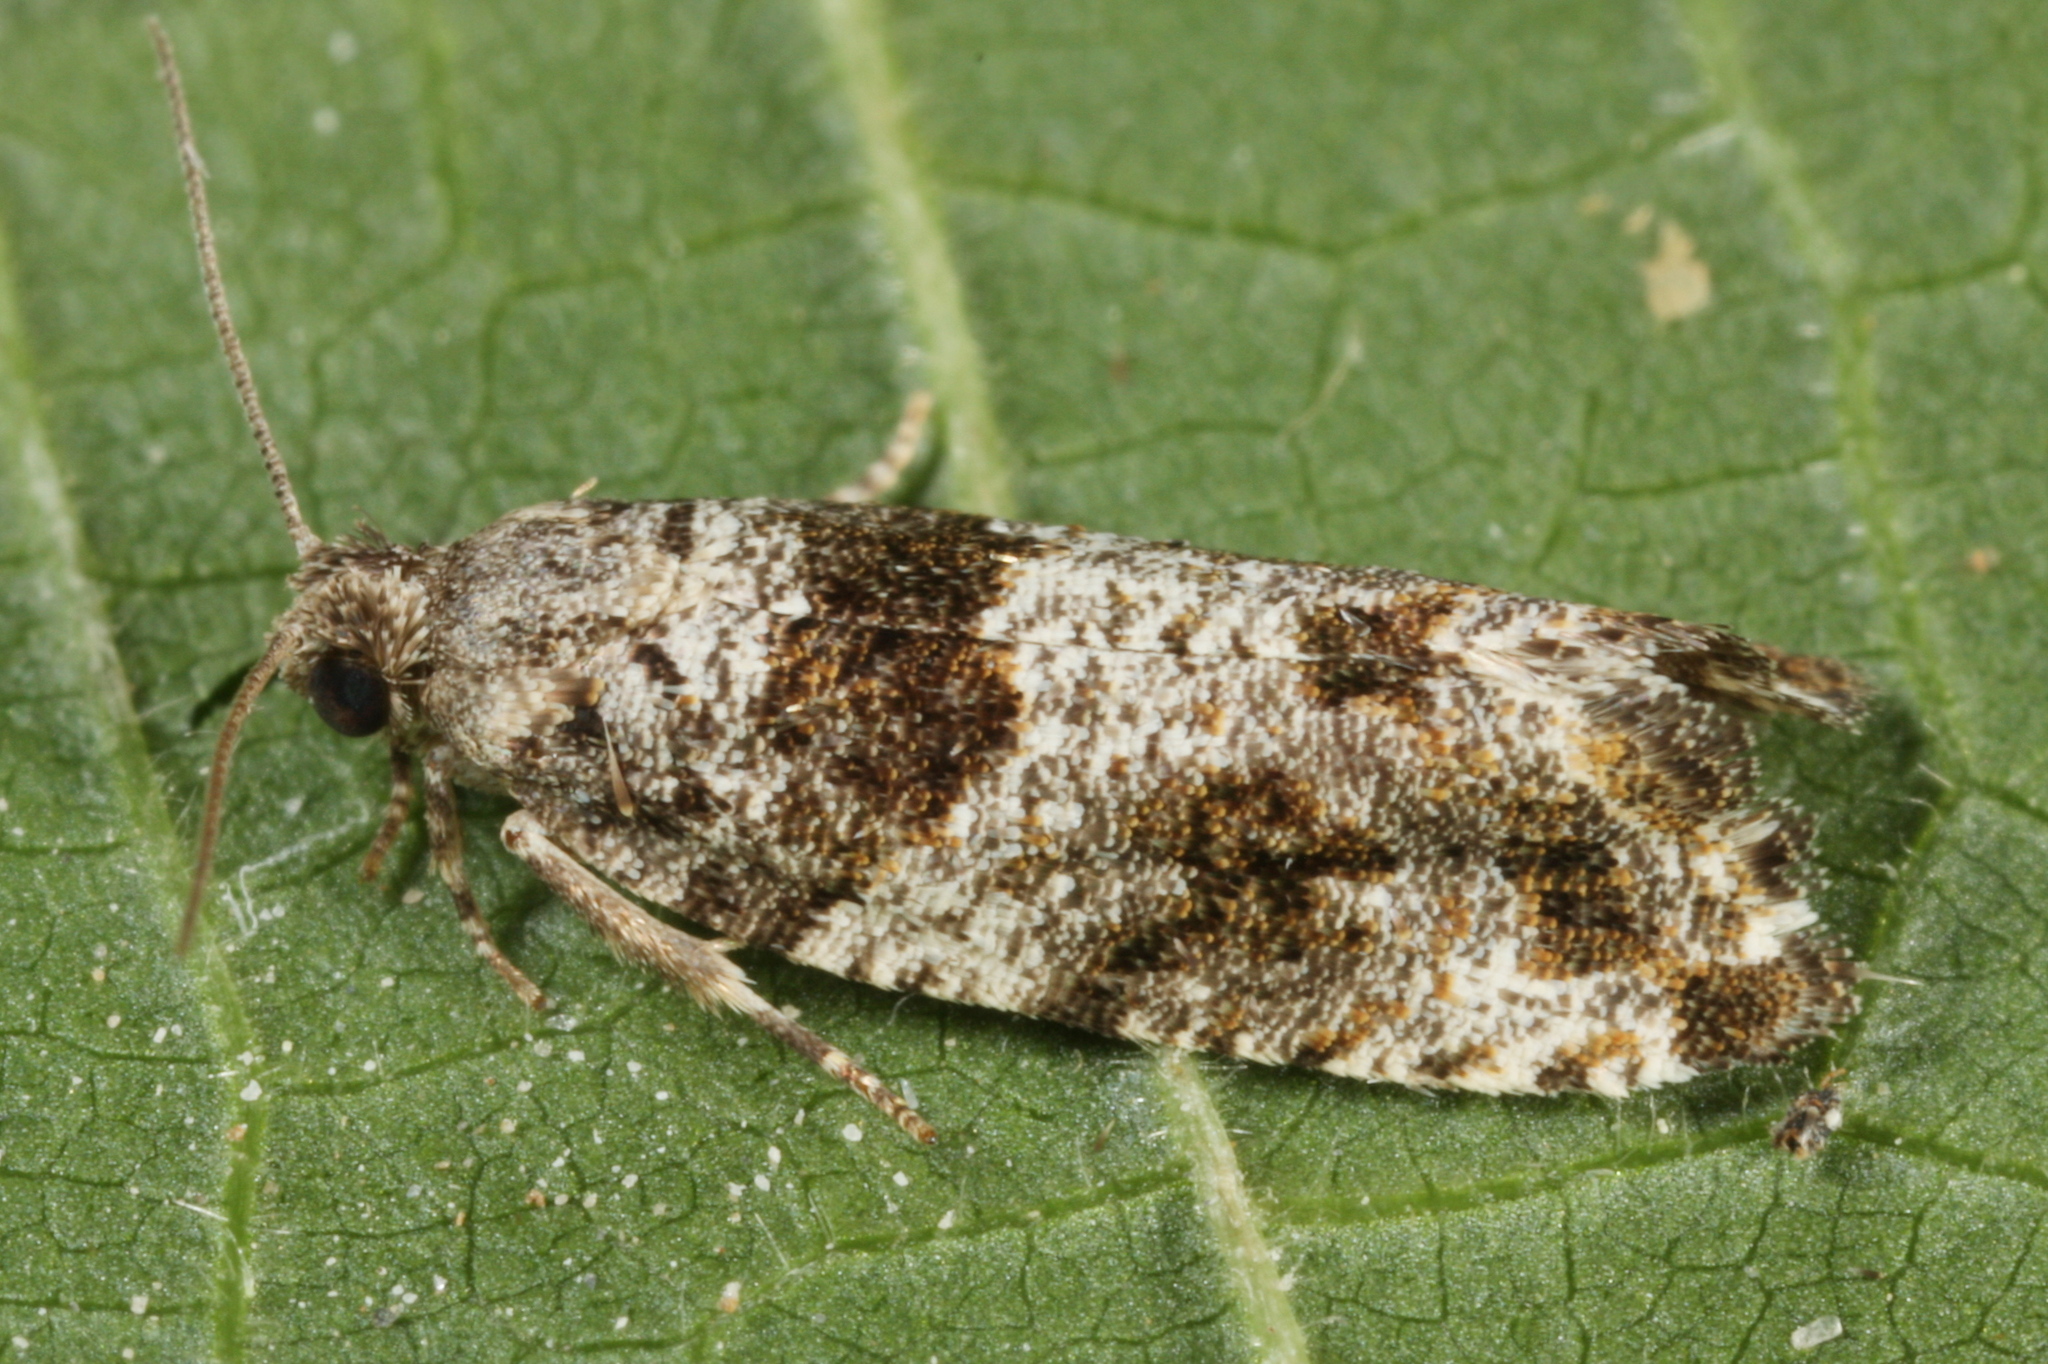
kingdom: Animalia
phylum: Arthropoda
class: Insecta
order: Lepidoptera
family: Tortricidae
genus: Gypsonoma
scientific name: Gypsonoma oppressana
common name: Poplar shoot
